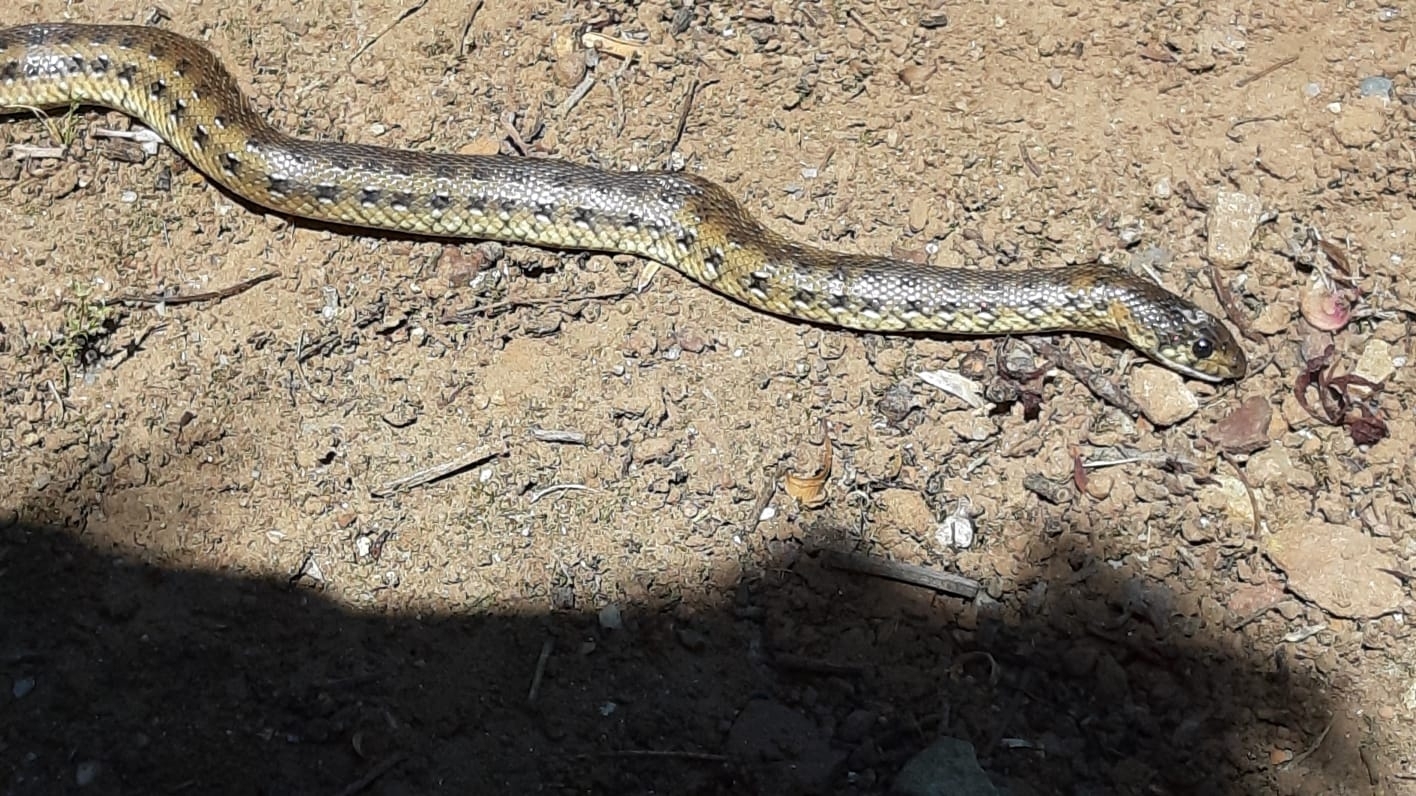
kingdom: Animalia
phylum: Chordata
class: Squamata
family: Pseudaspididae
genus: Pseudaspis
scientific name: Pseudaspis cana
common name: Mole snake
